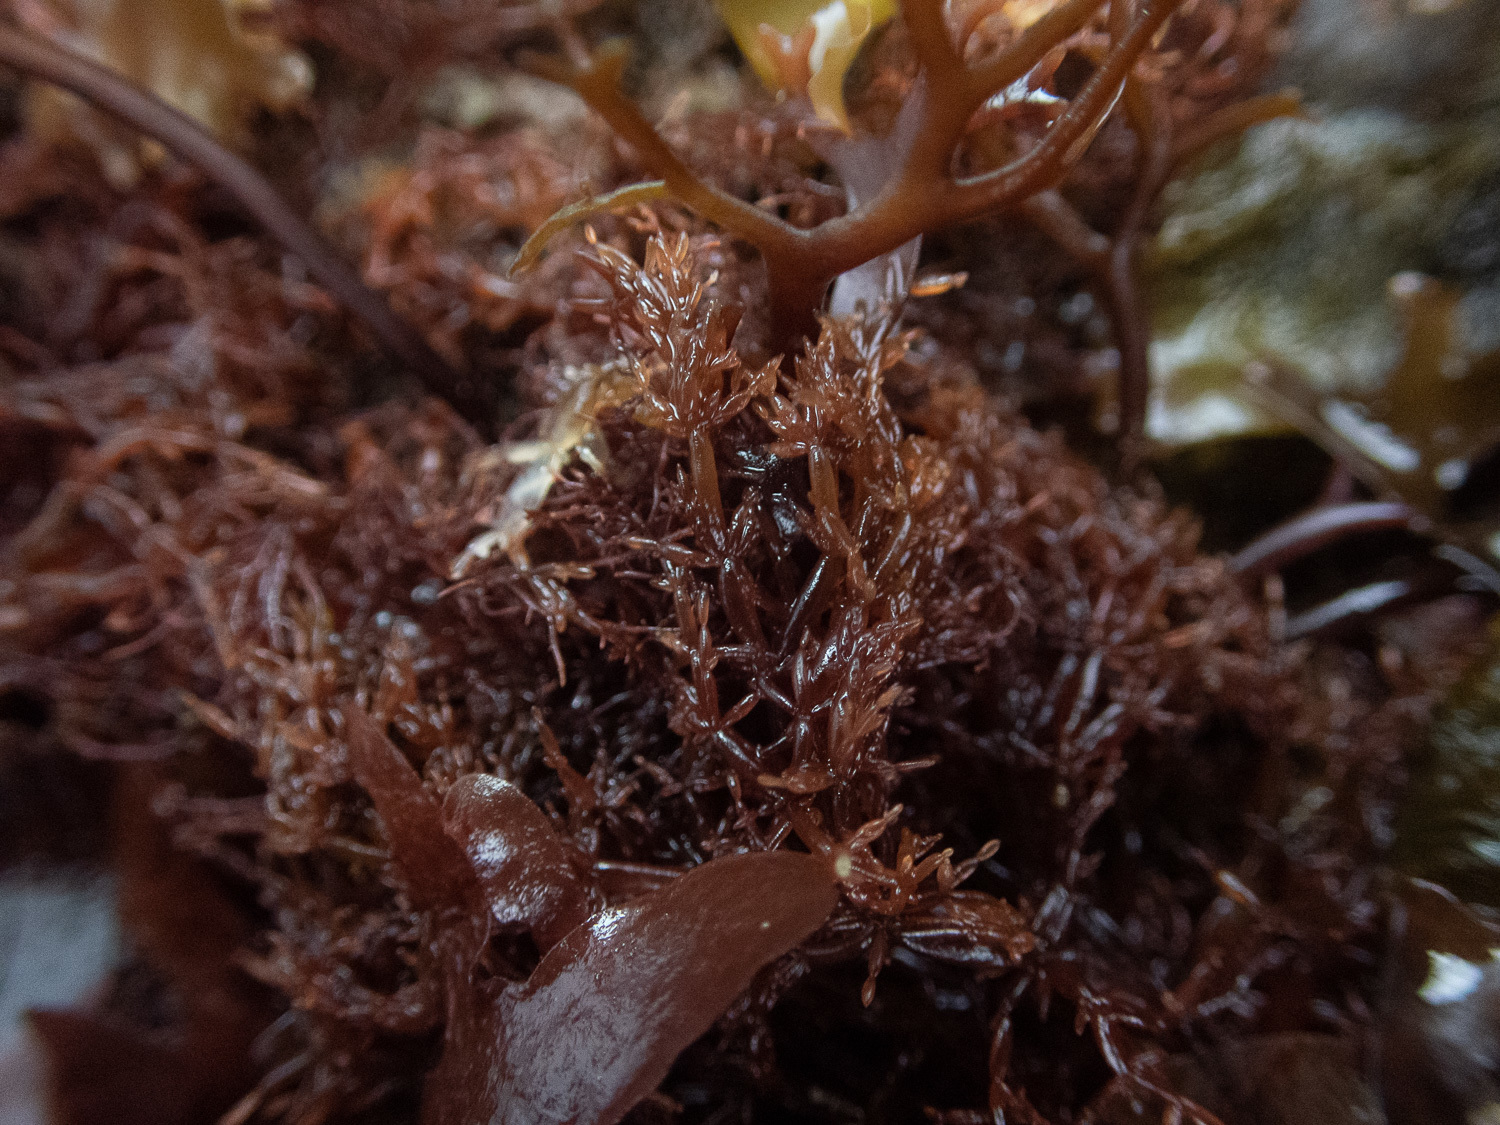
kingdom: Plantae
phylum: Rhodophyta
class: Florideophyceae
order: Rhodymeniales
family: Lomentariaceae
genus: Lomentaria
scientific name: Lomentaria articulata
